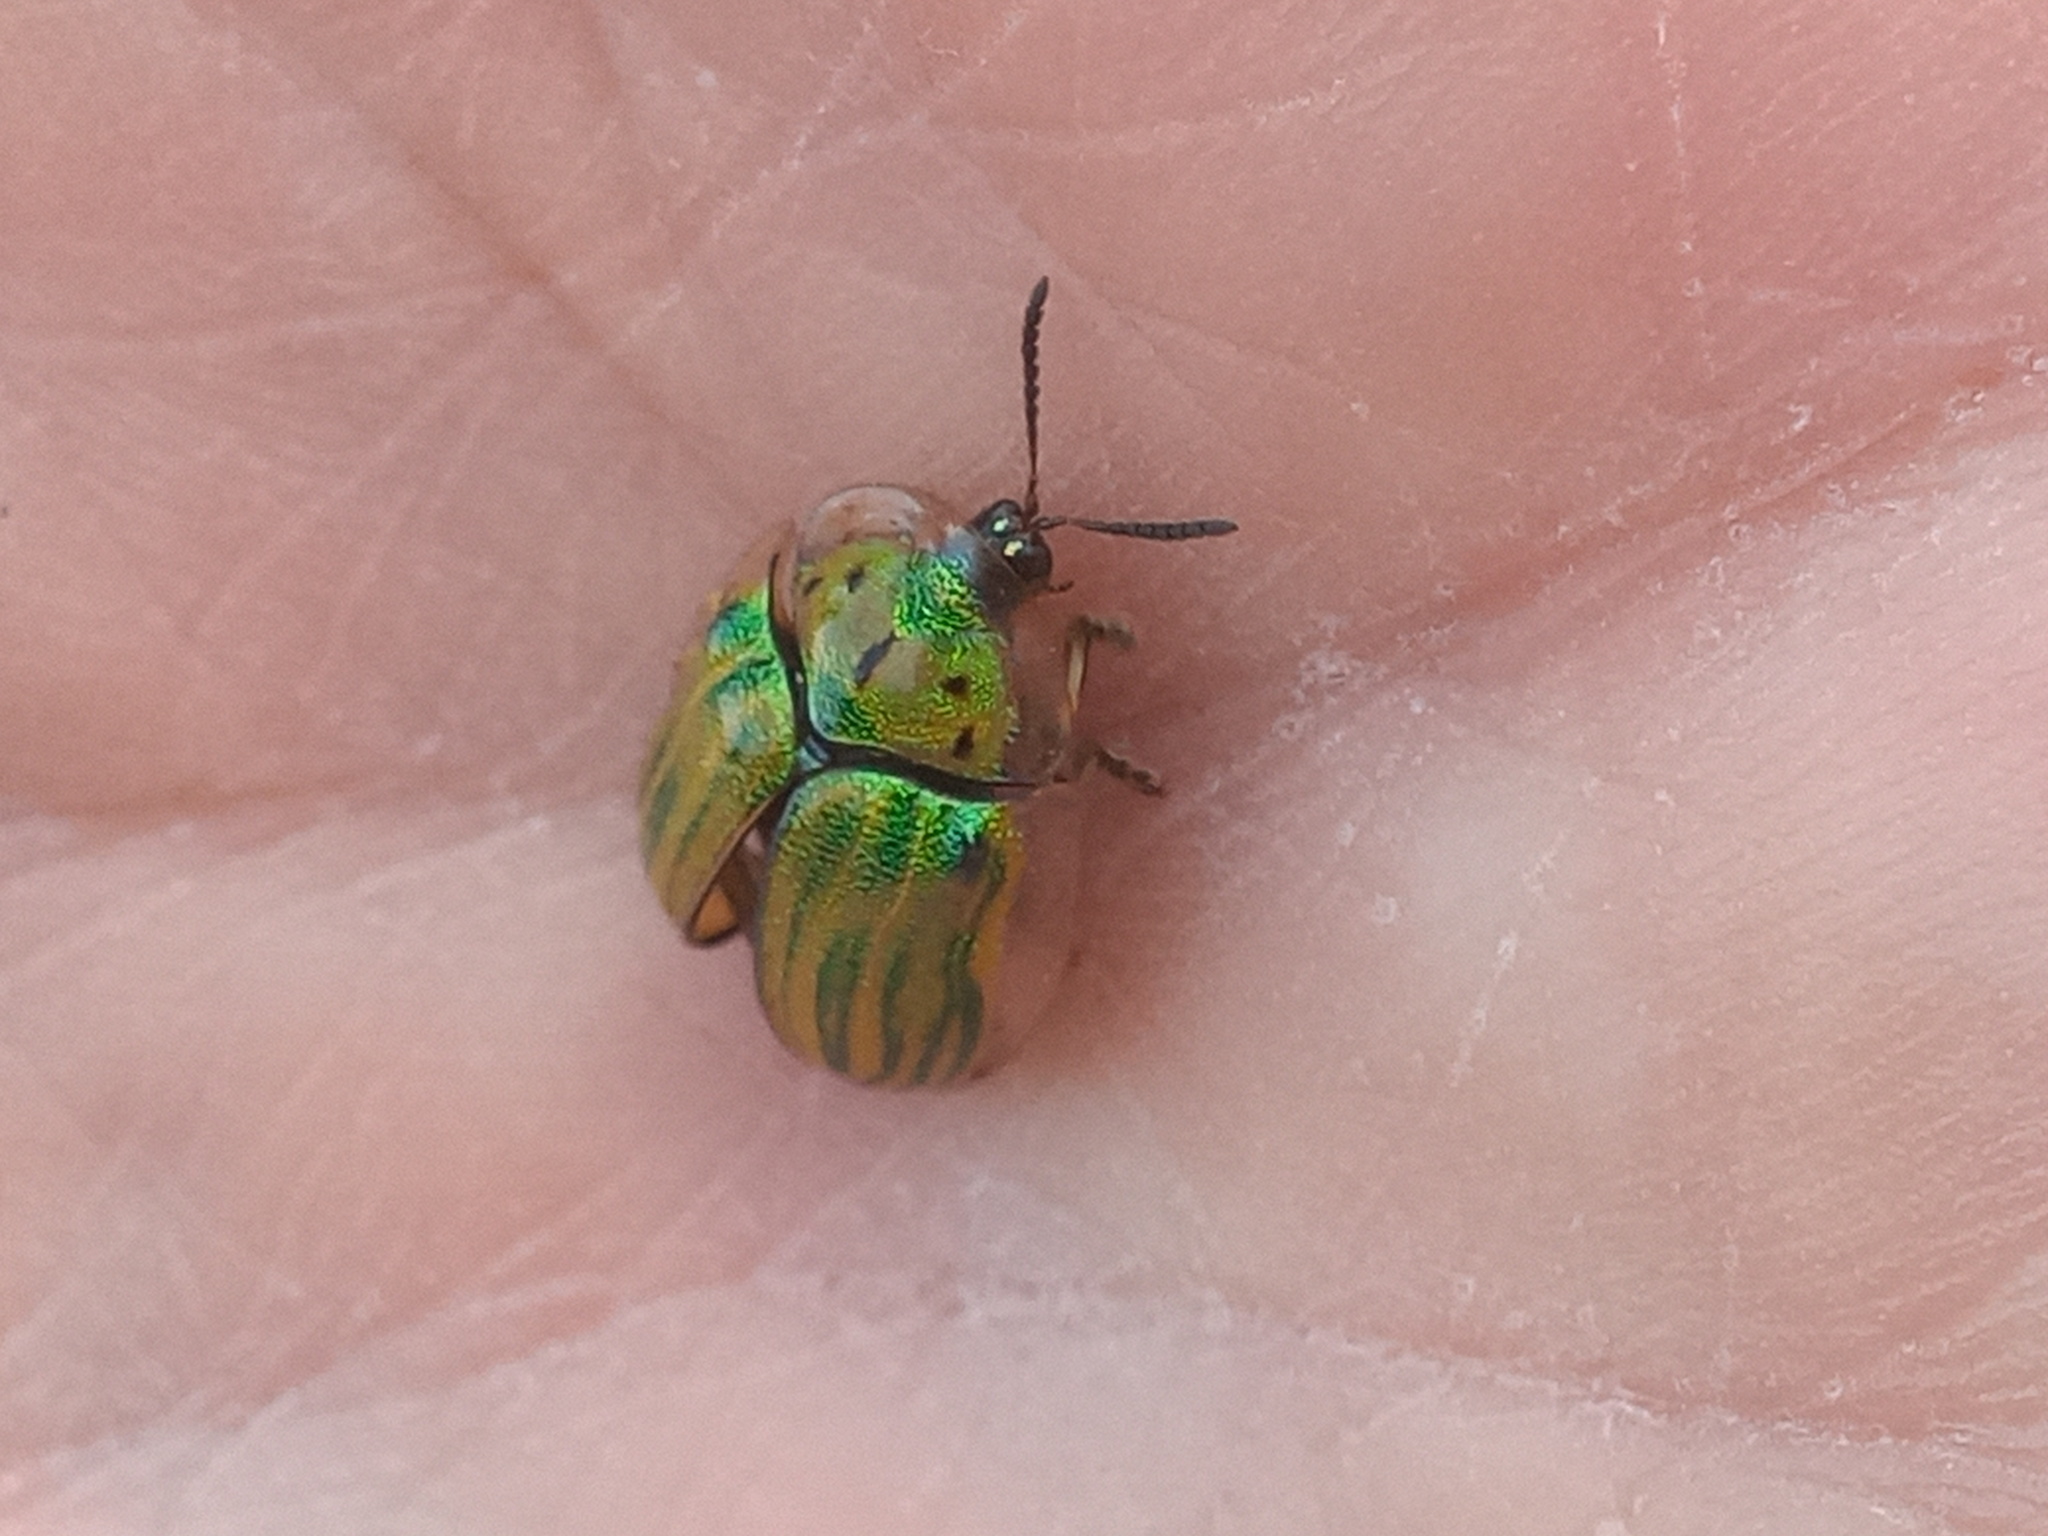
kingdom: Animalia
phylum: Arthropoda
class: Insecta
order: Coleoptera
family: Chrysomelidae
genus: Physonota
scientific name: Physonota ovalis
